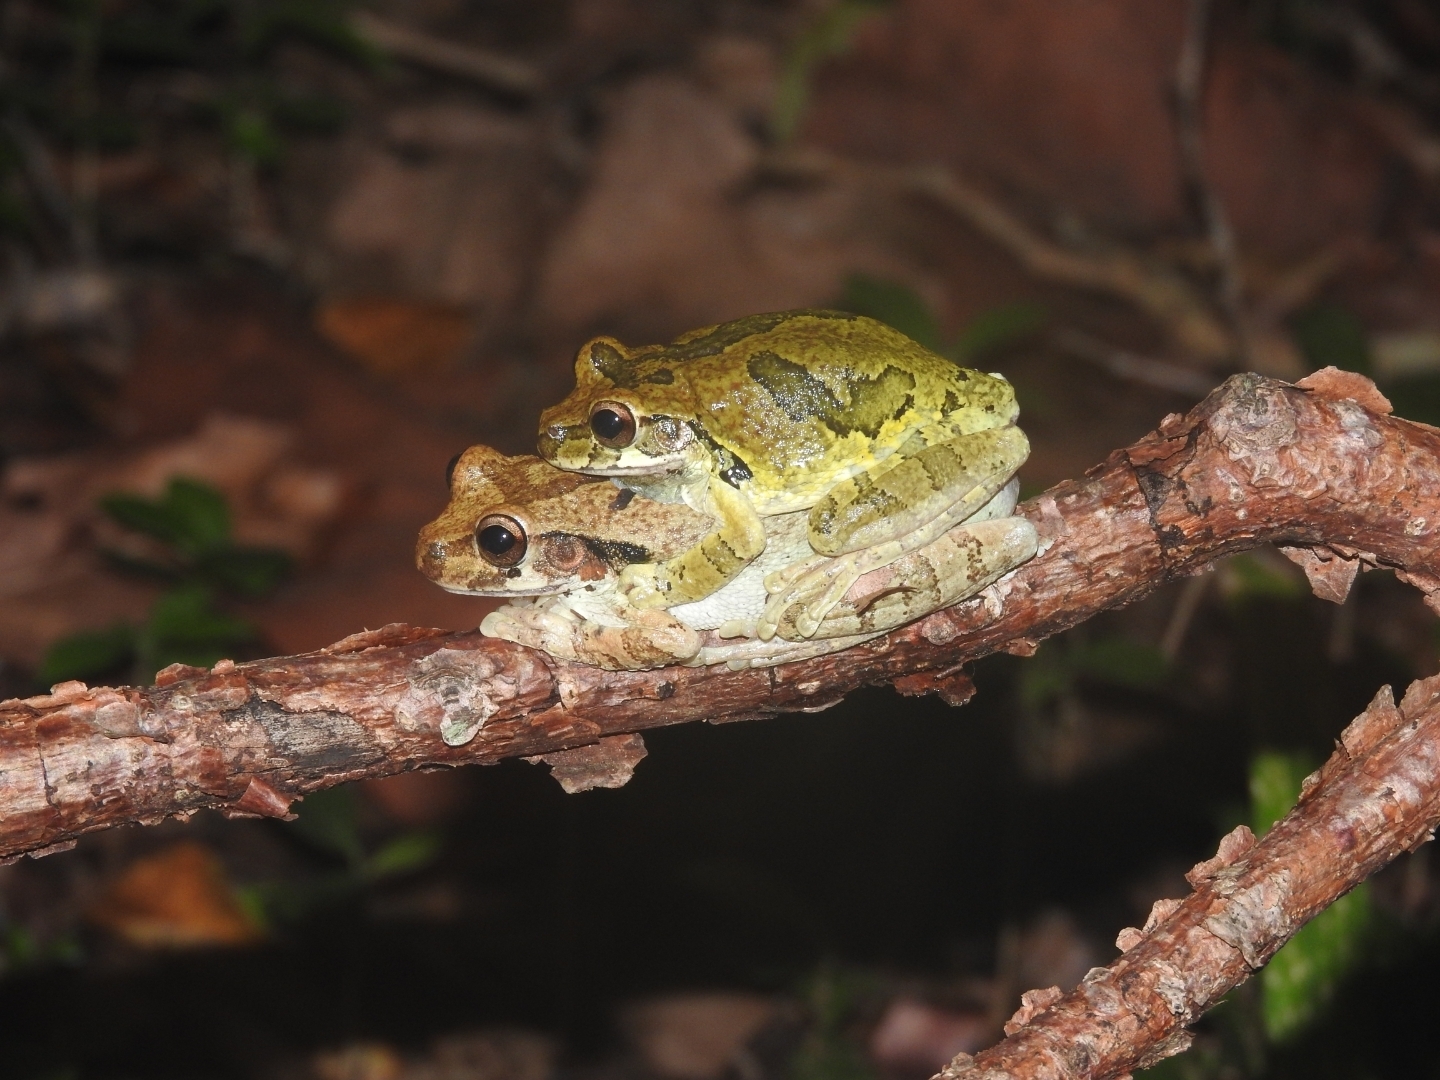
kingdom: Animalia
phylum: Chordata
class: Amphibia
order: Anura
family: Hylidae
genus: Smilisca
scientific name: Smilisca baudinii
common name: Mexican smilisca
